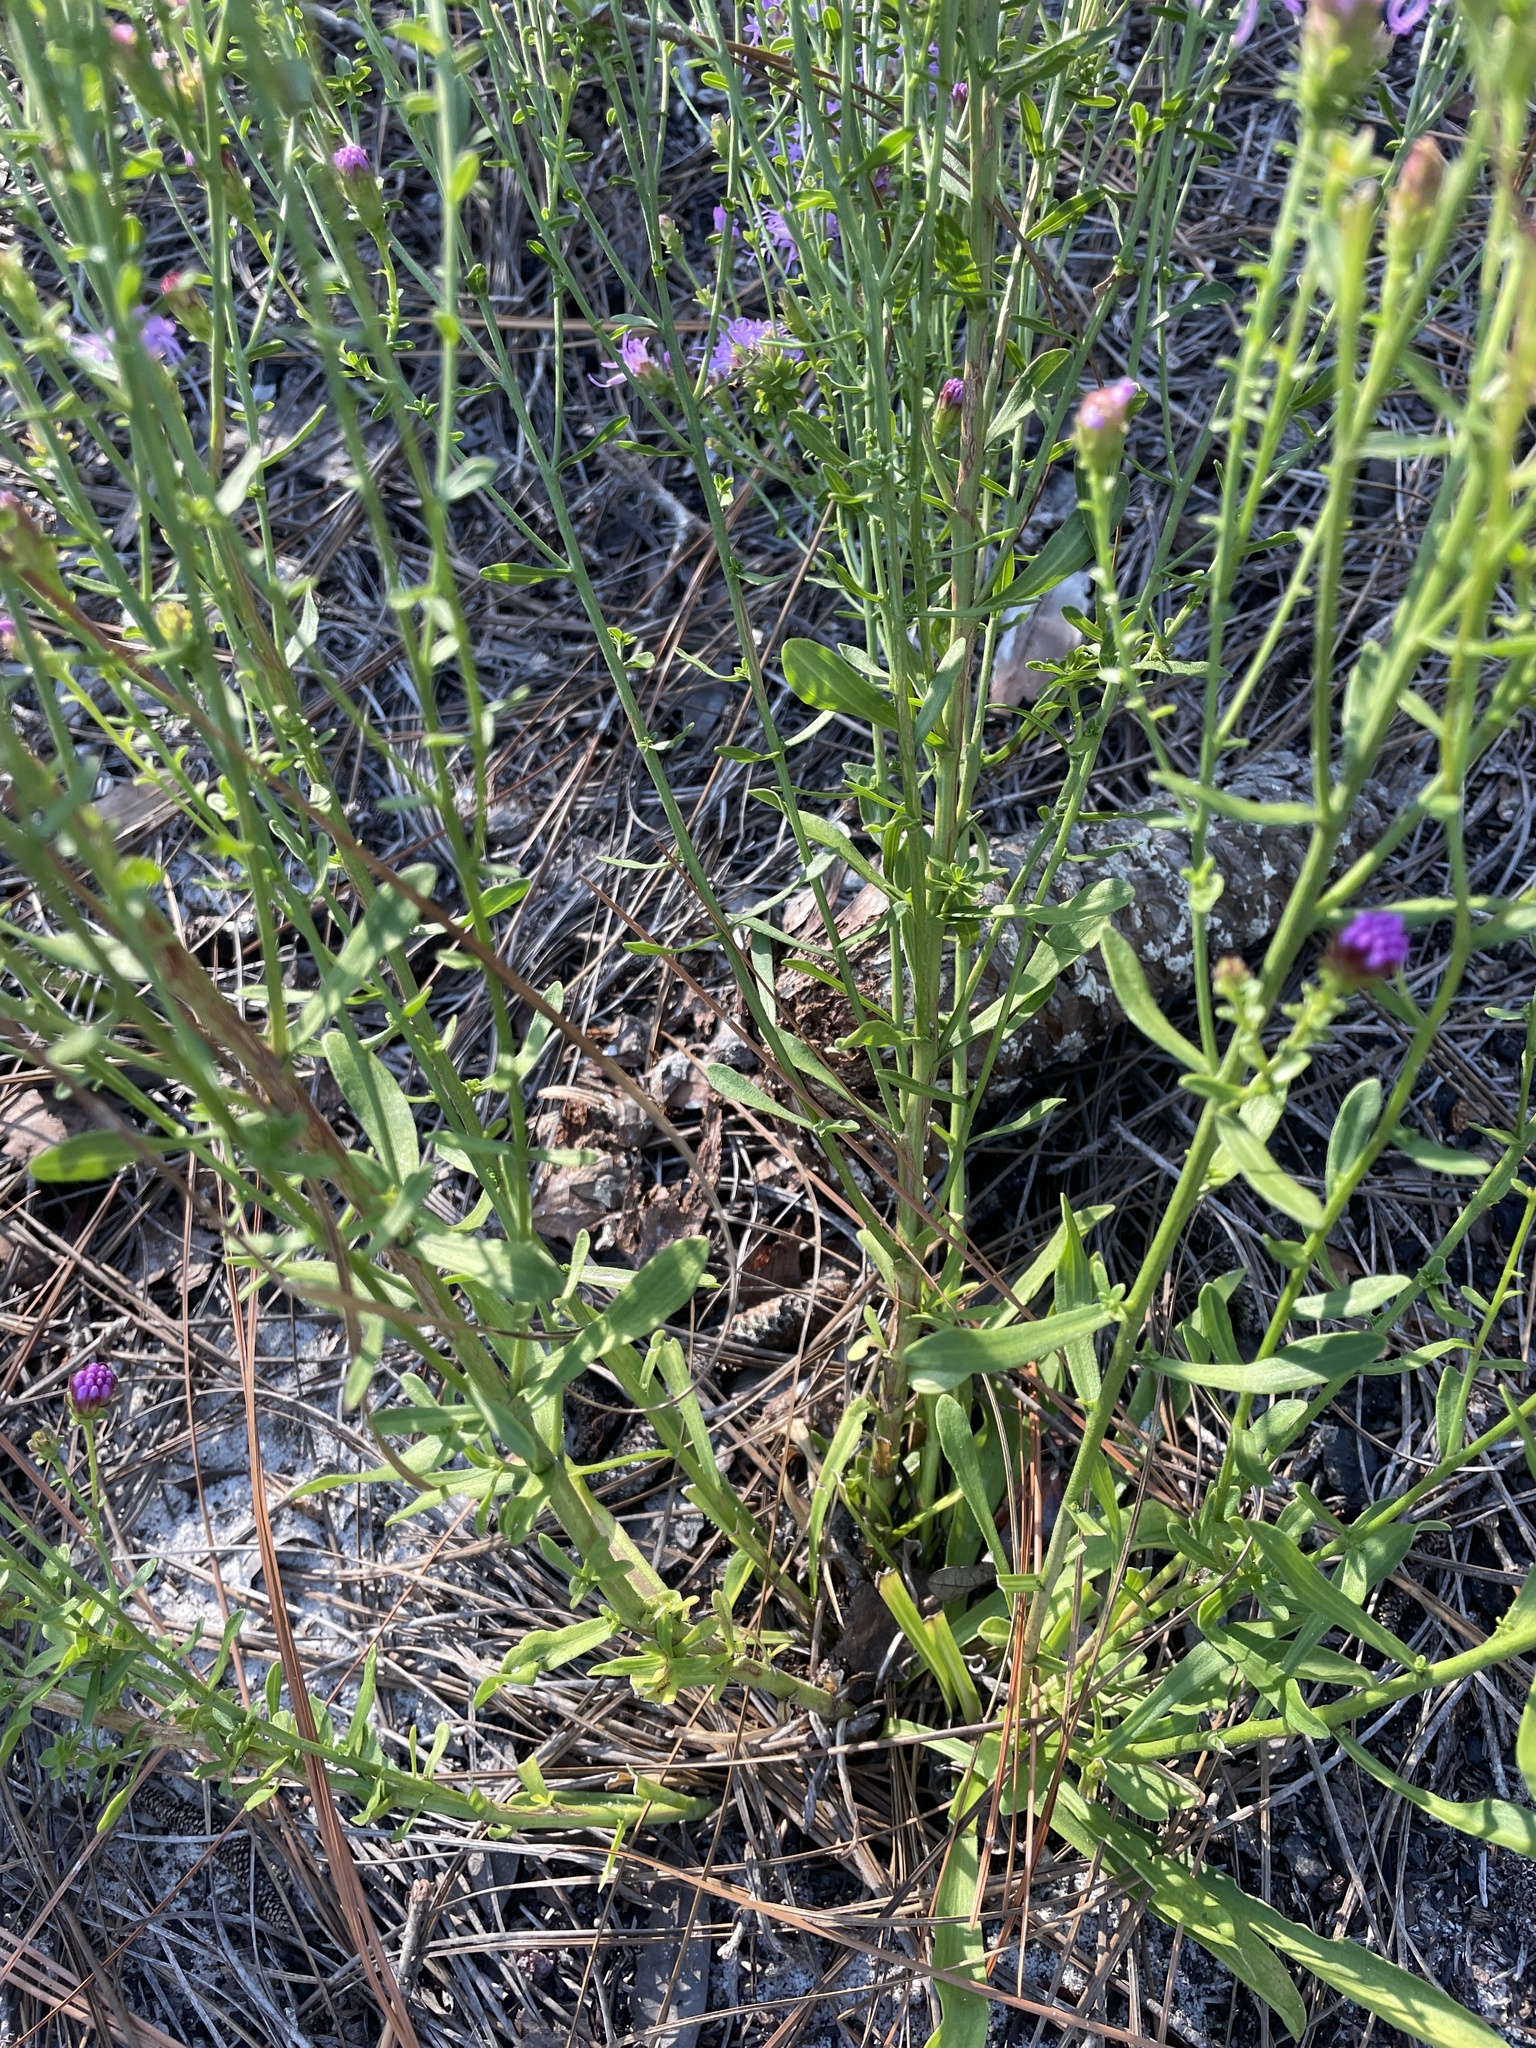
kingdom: Plantae
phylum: Tracheophyta
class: Magnoliopsida
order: Asterales
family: Asteraceae
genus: Carphephorus
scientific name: Carphephorus bellidifolius
